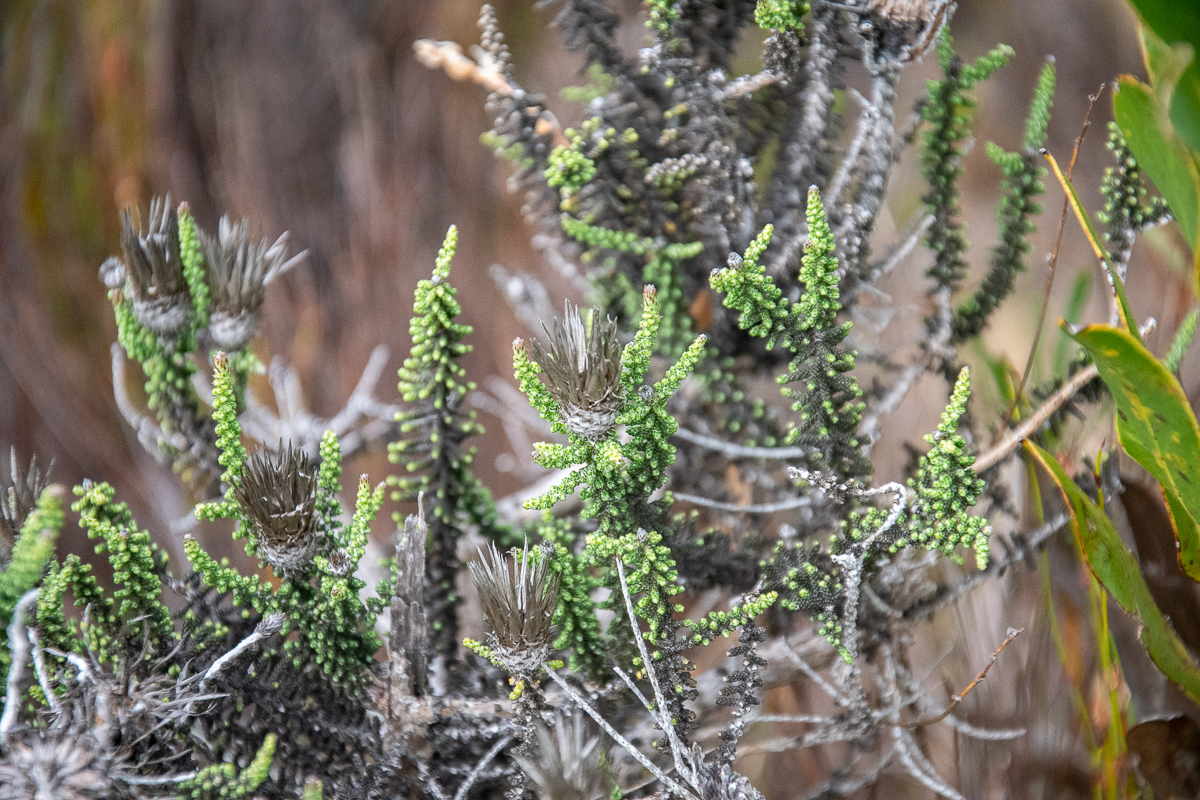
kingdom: Plantae
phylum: Tracheophyta
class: Magnoliopsida
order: Asterales
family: Asteraceae
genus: Phaenocoma
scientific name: Phaenocoma prolifera
